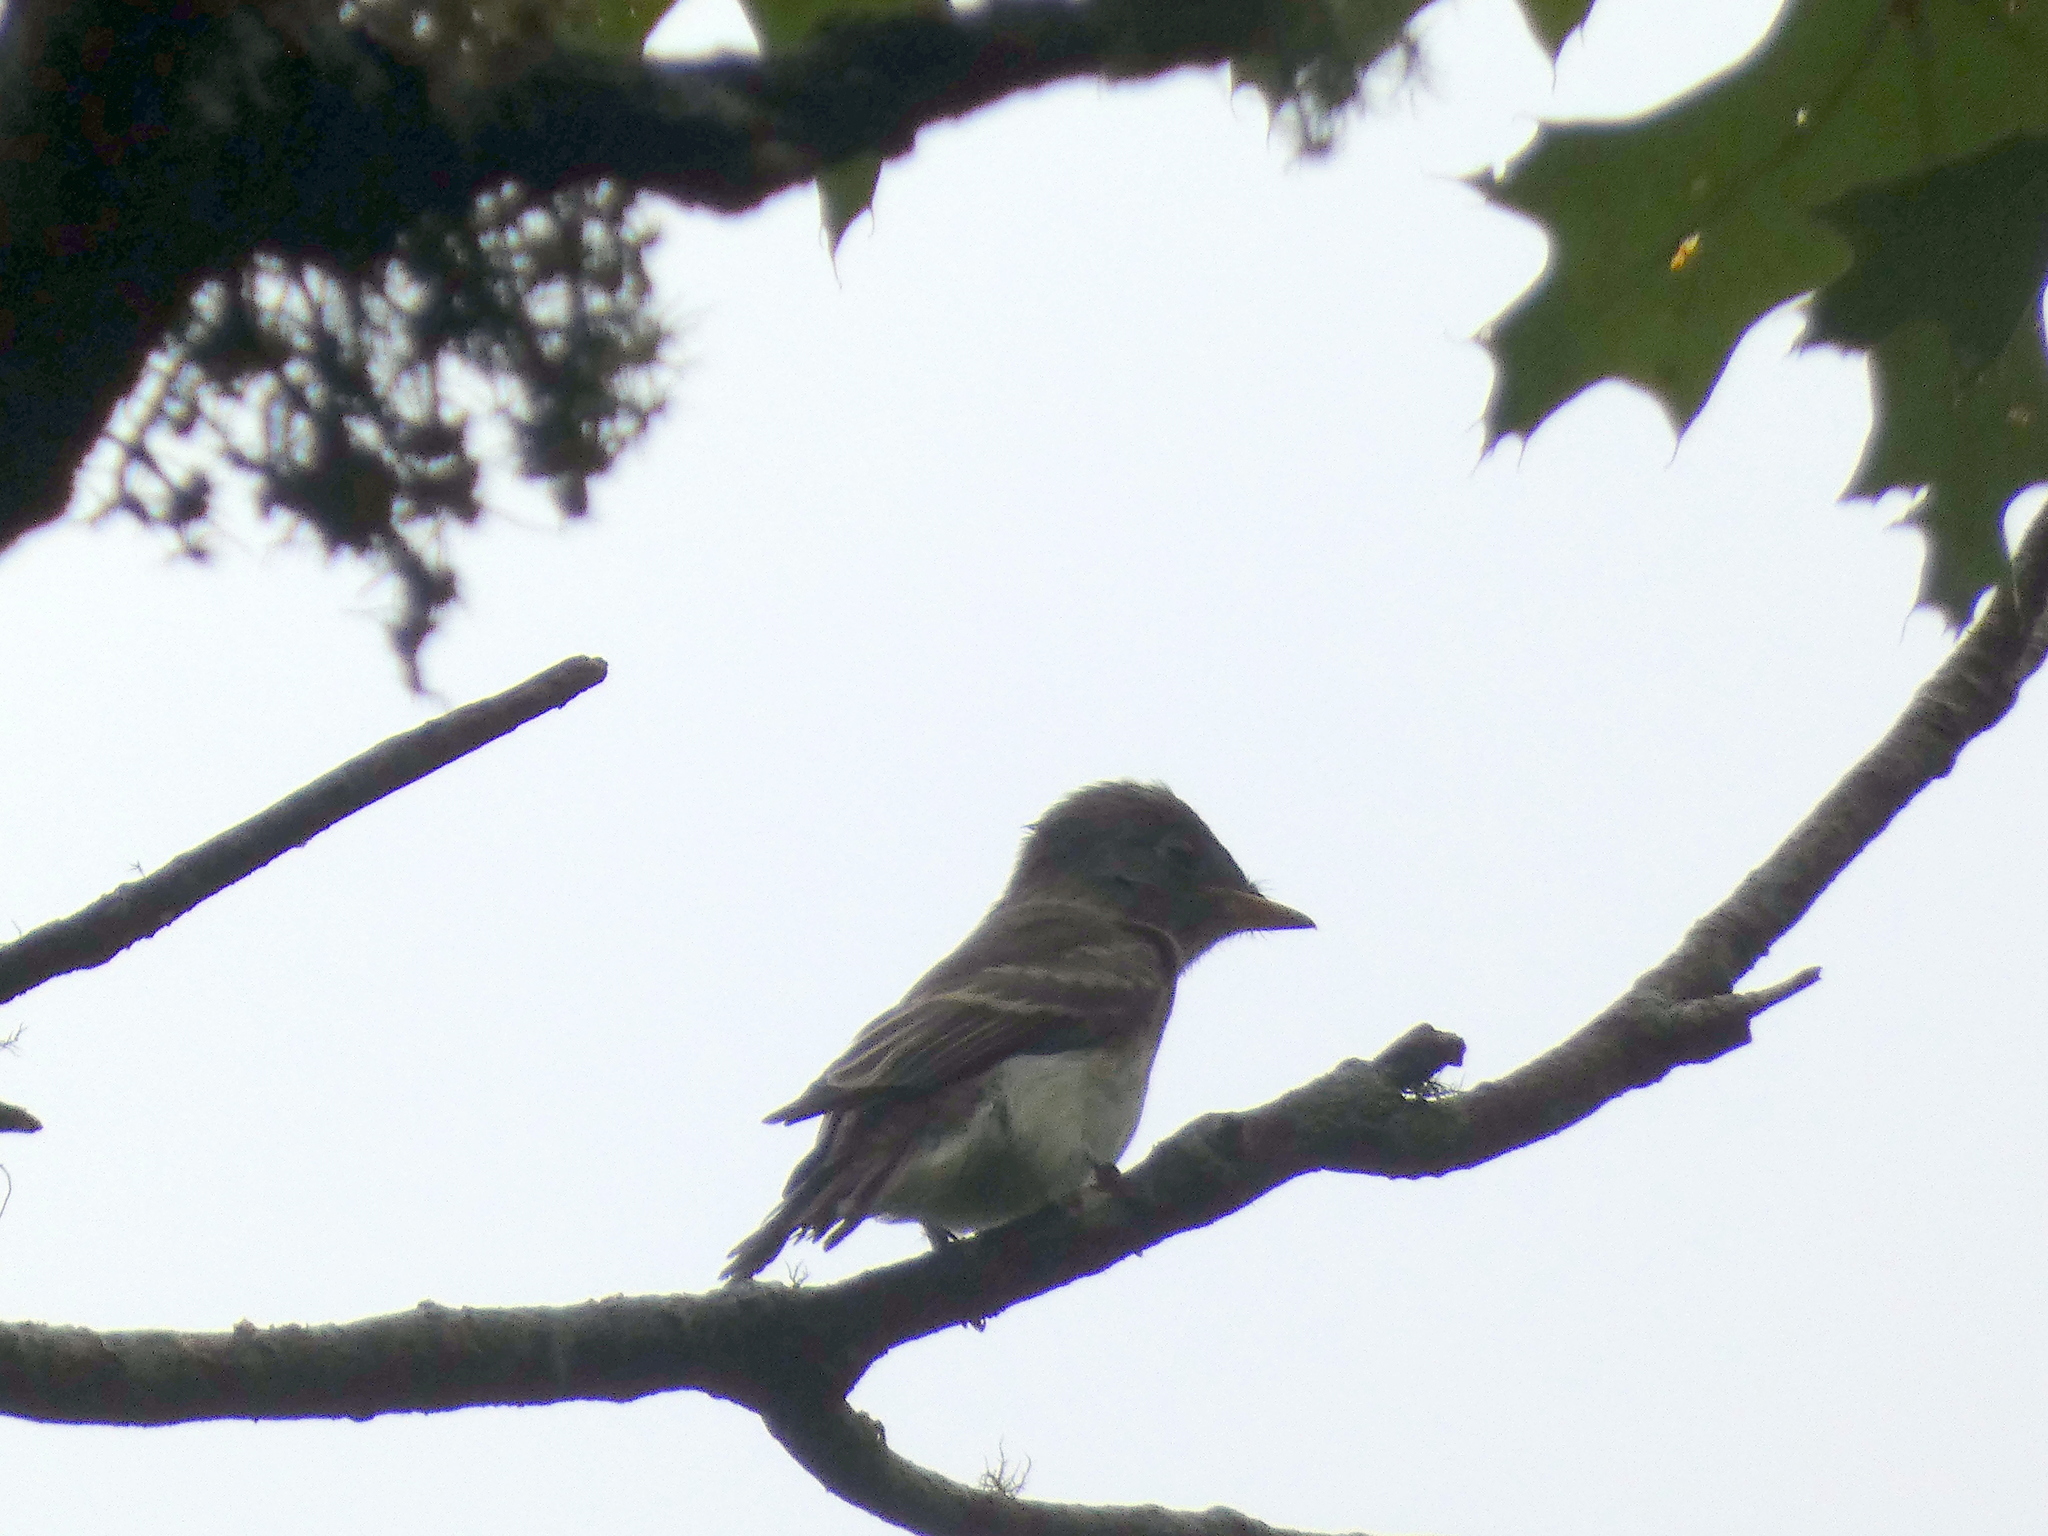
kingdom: Animalia
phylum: Chordata
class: Aves
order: Passeriformes
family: Tyrannidae
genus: Contopus
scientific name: Contopus virens
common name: Eastern wood-pewee
